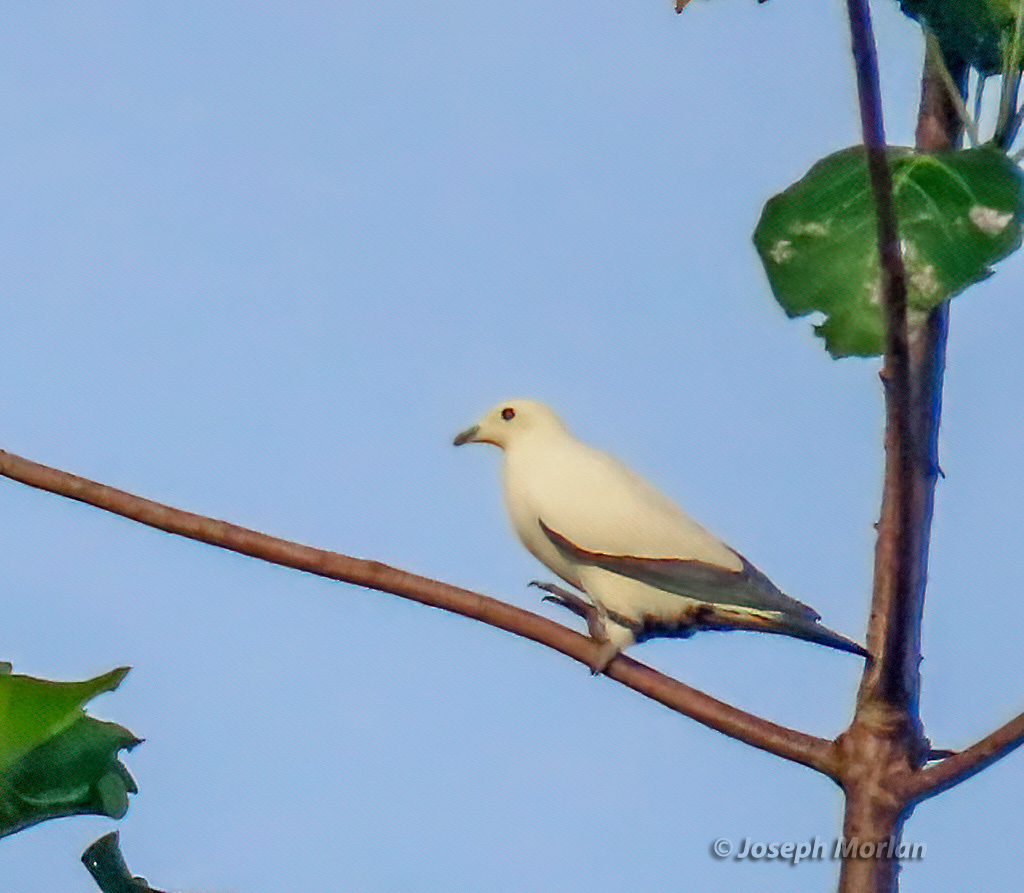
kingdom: Animalia
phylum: Chordata
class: Aves
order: Columbiformes
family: Columbidae
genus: Ducula
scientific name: Ducula bicolor
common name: Pied imperial pigeon
